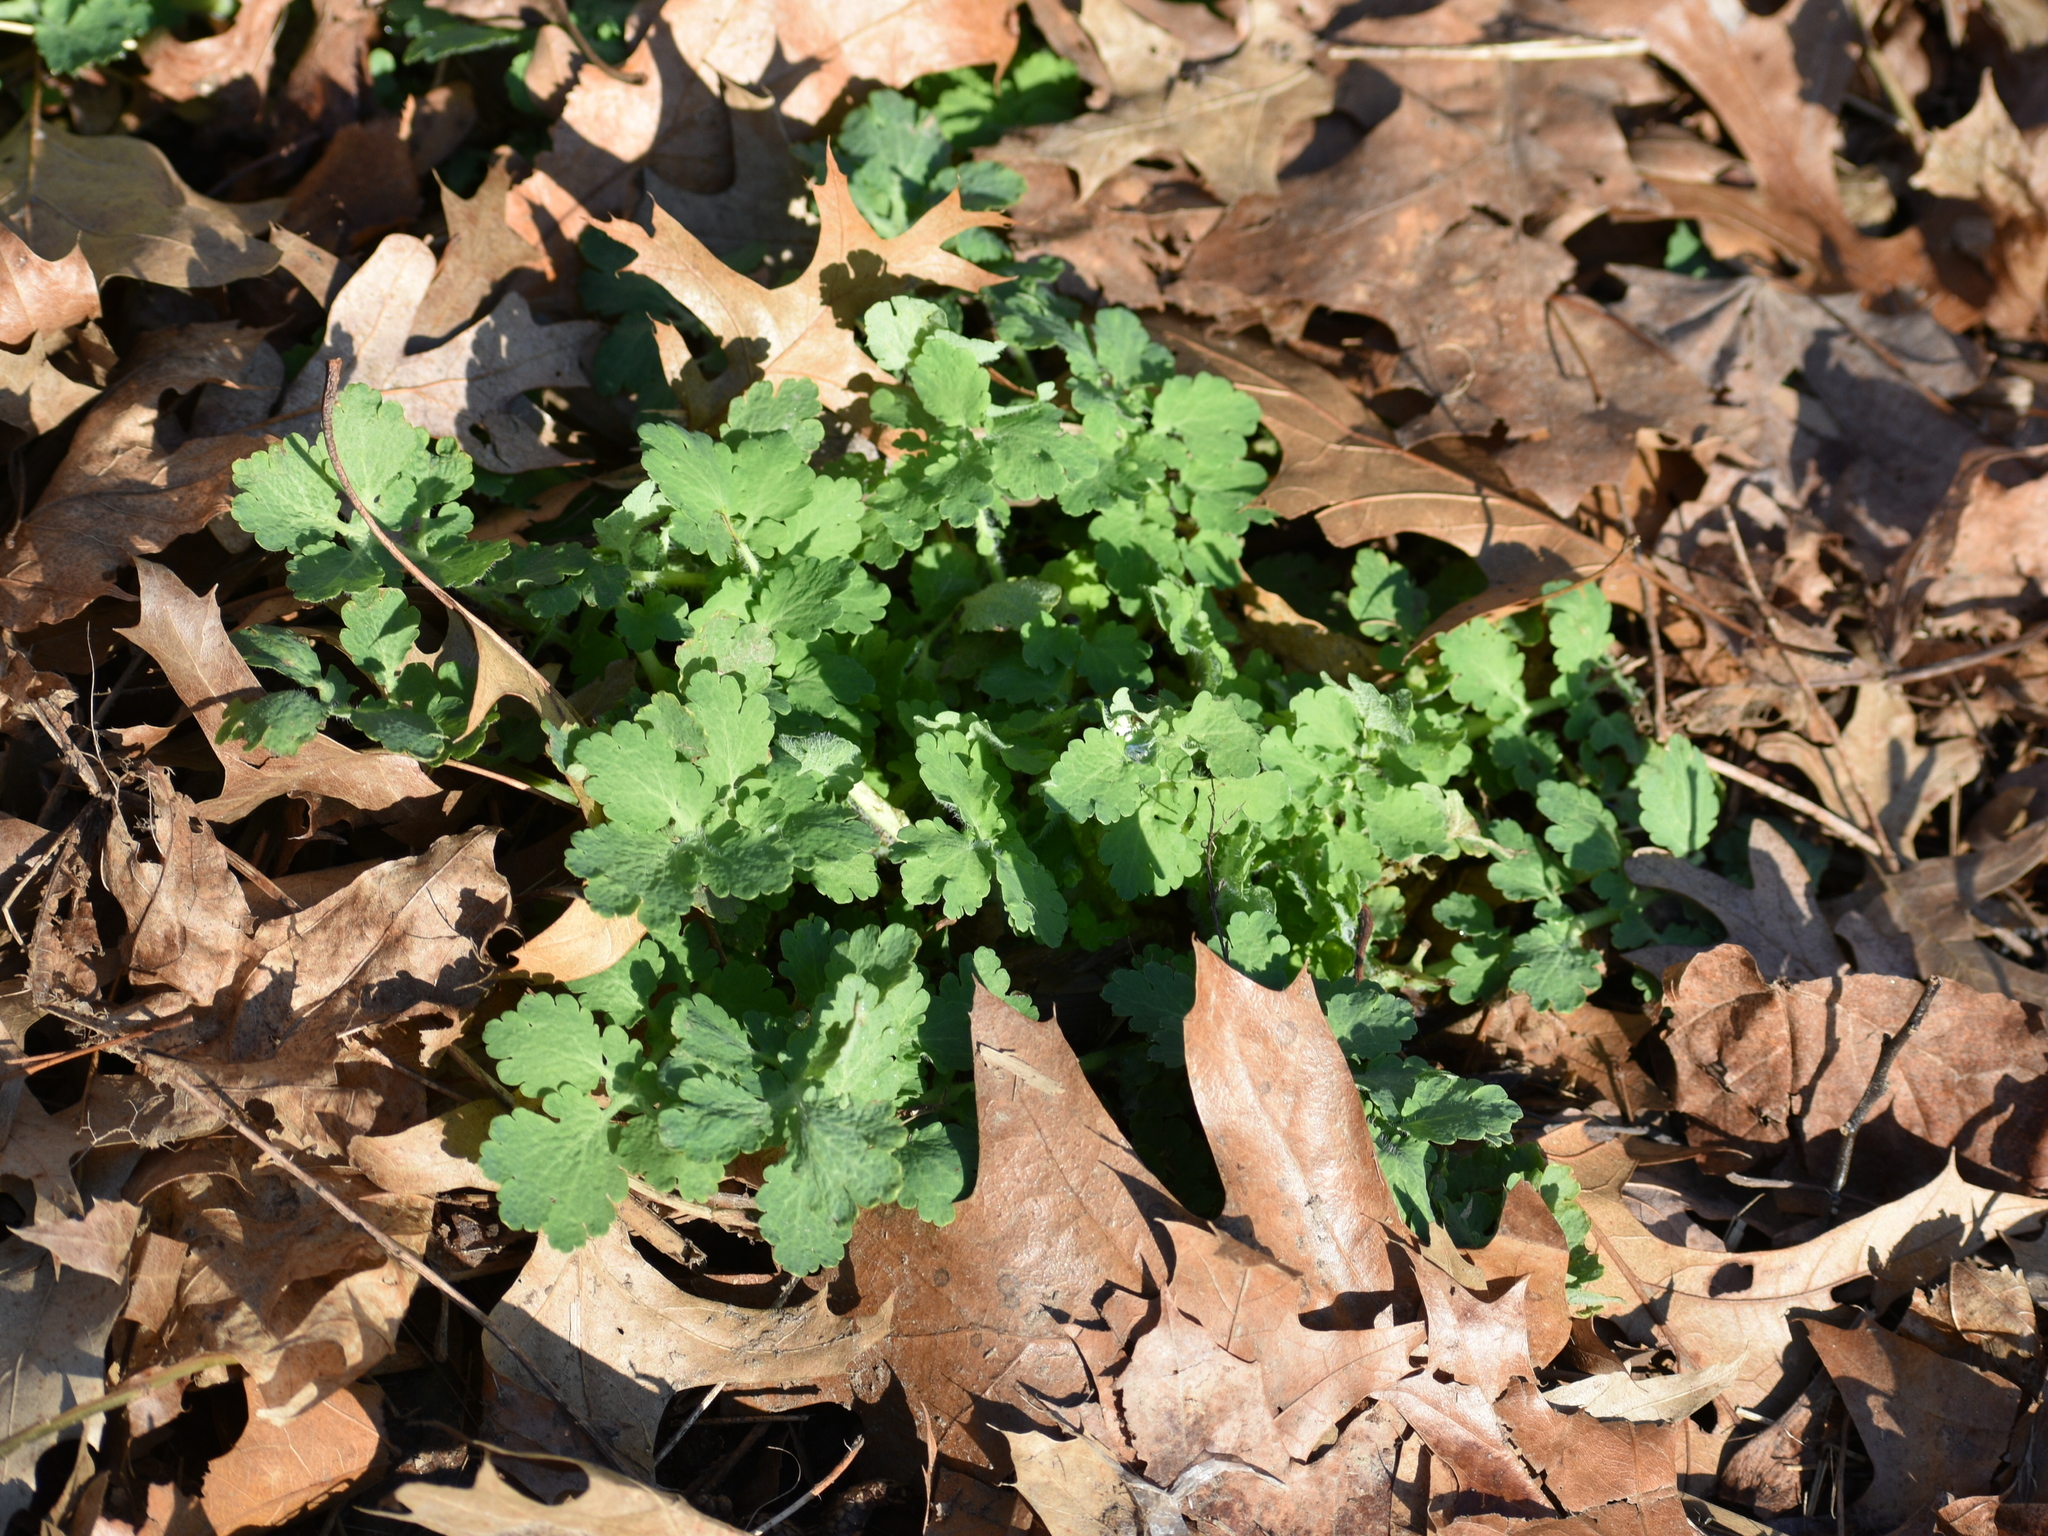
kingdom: Plantae
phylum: Tracheophyta
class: Magnoliopsida
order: Ranunculales
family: Papaveraceae
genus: Chelidonium
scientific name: Chelidonium majus
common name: Greater celandine
